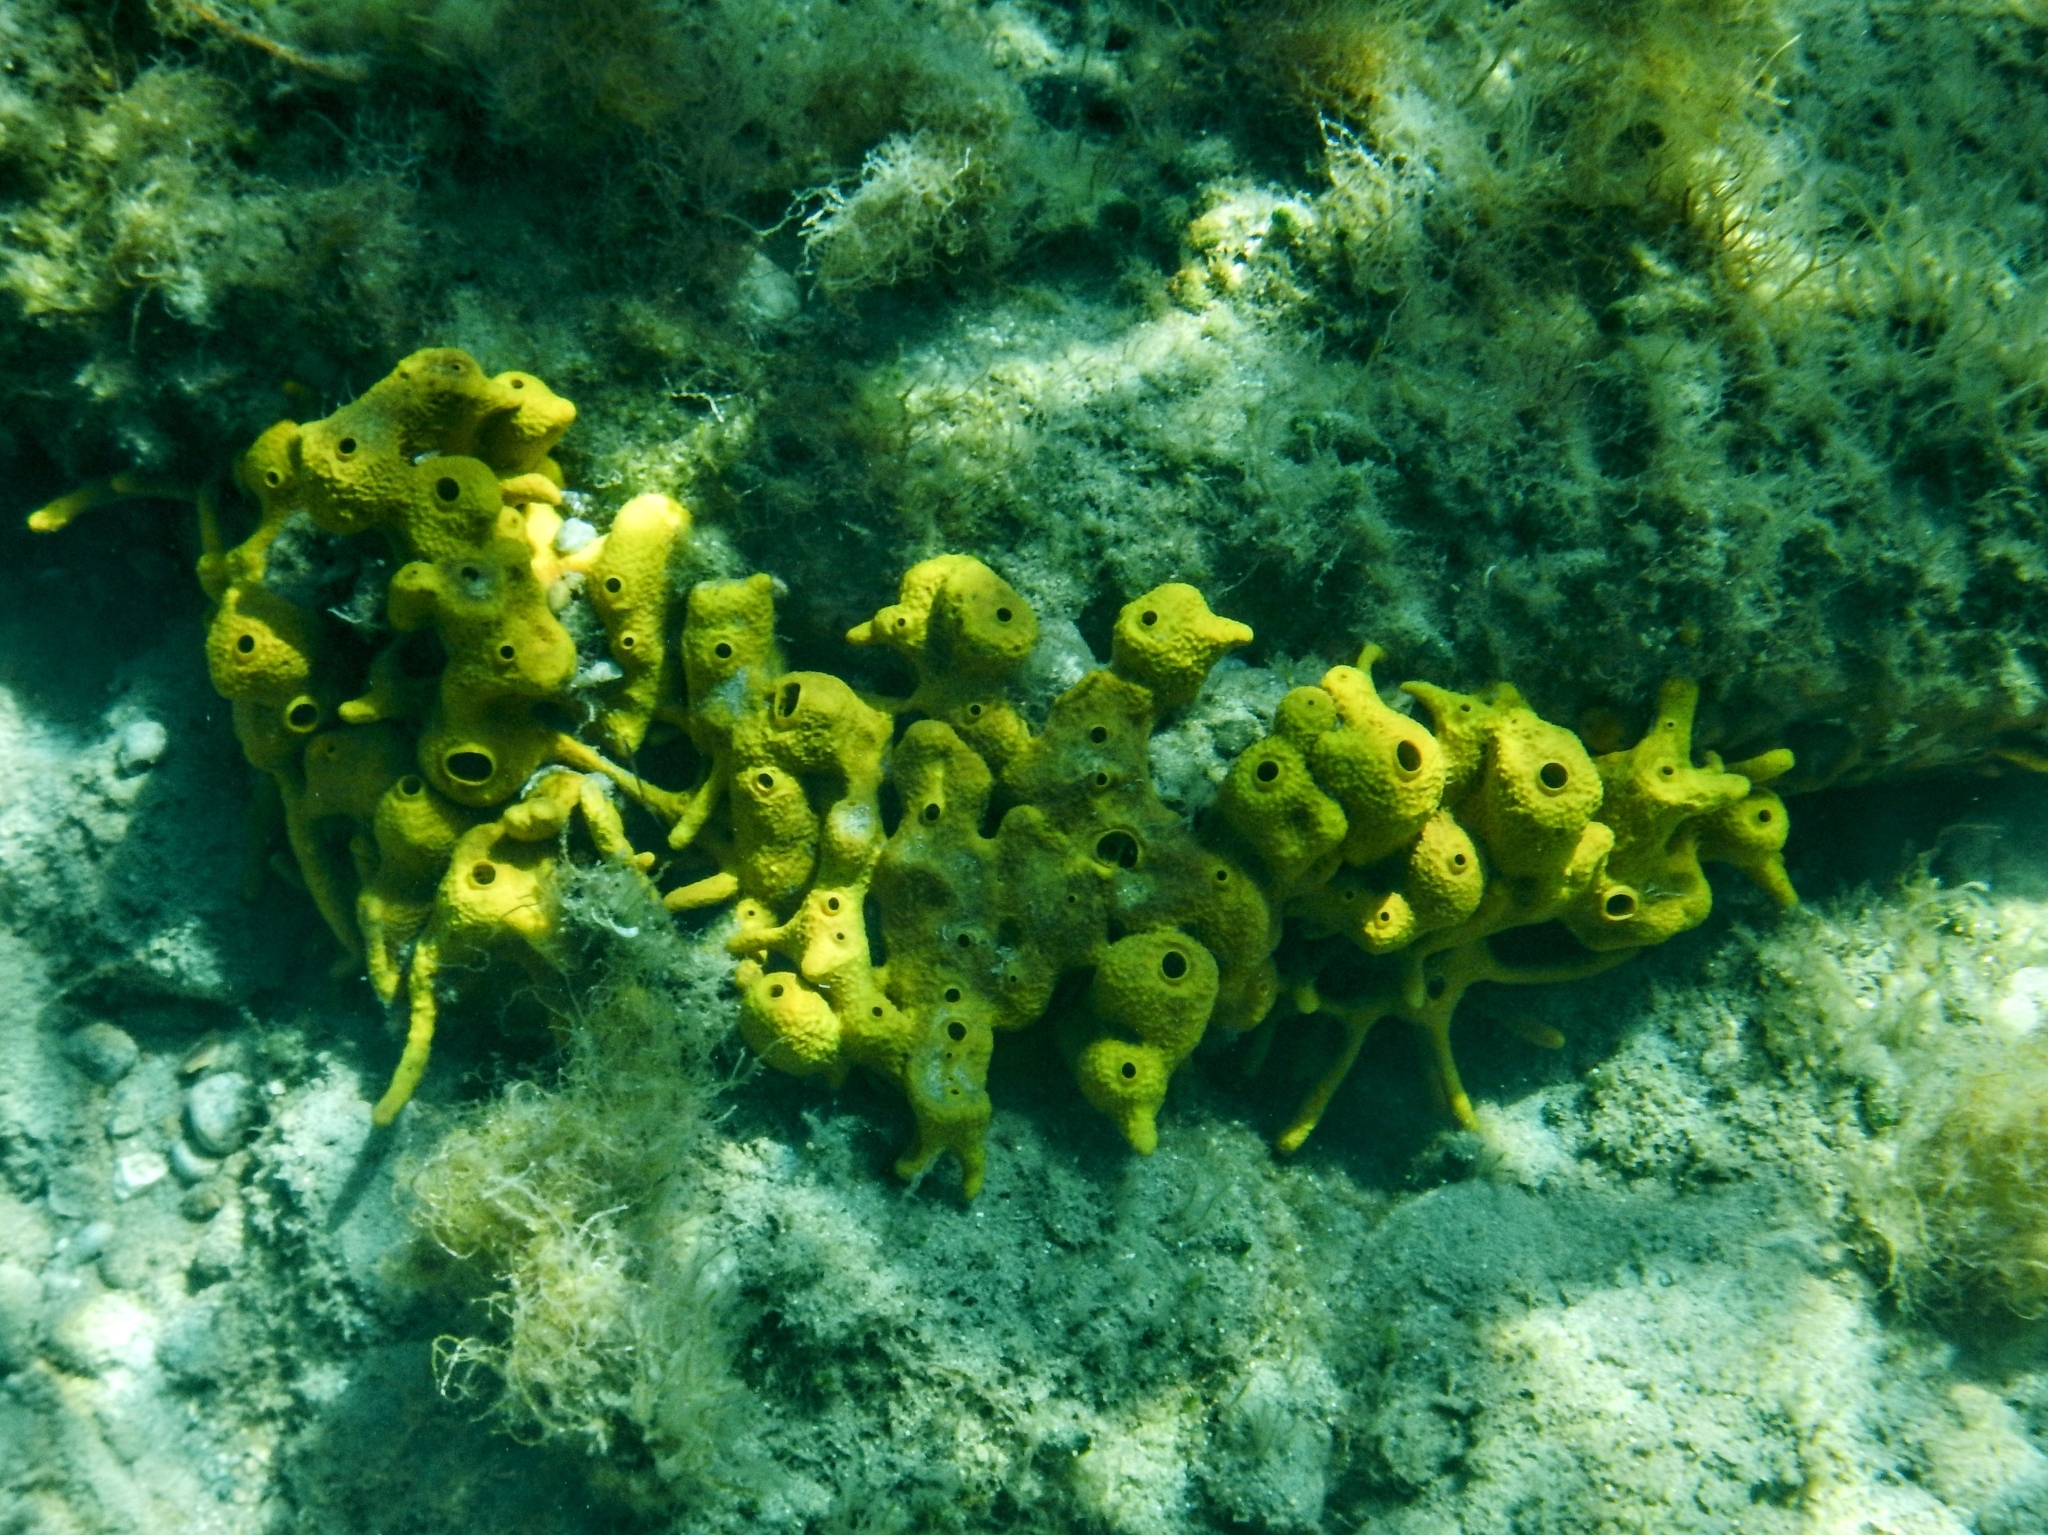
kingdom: Animalia
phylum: Porifera
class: Demospongiae
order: Verongiida
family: Aplysinidae
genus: Aplysina
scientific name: Aplysina aerophoba
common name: Aureate sponge
